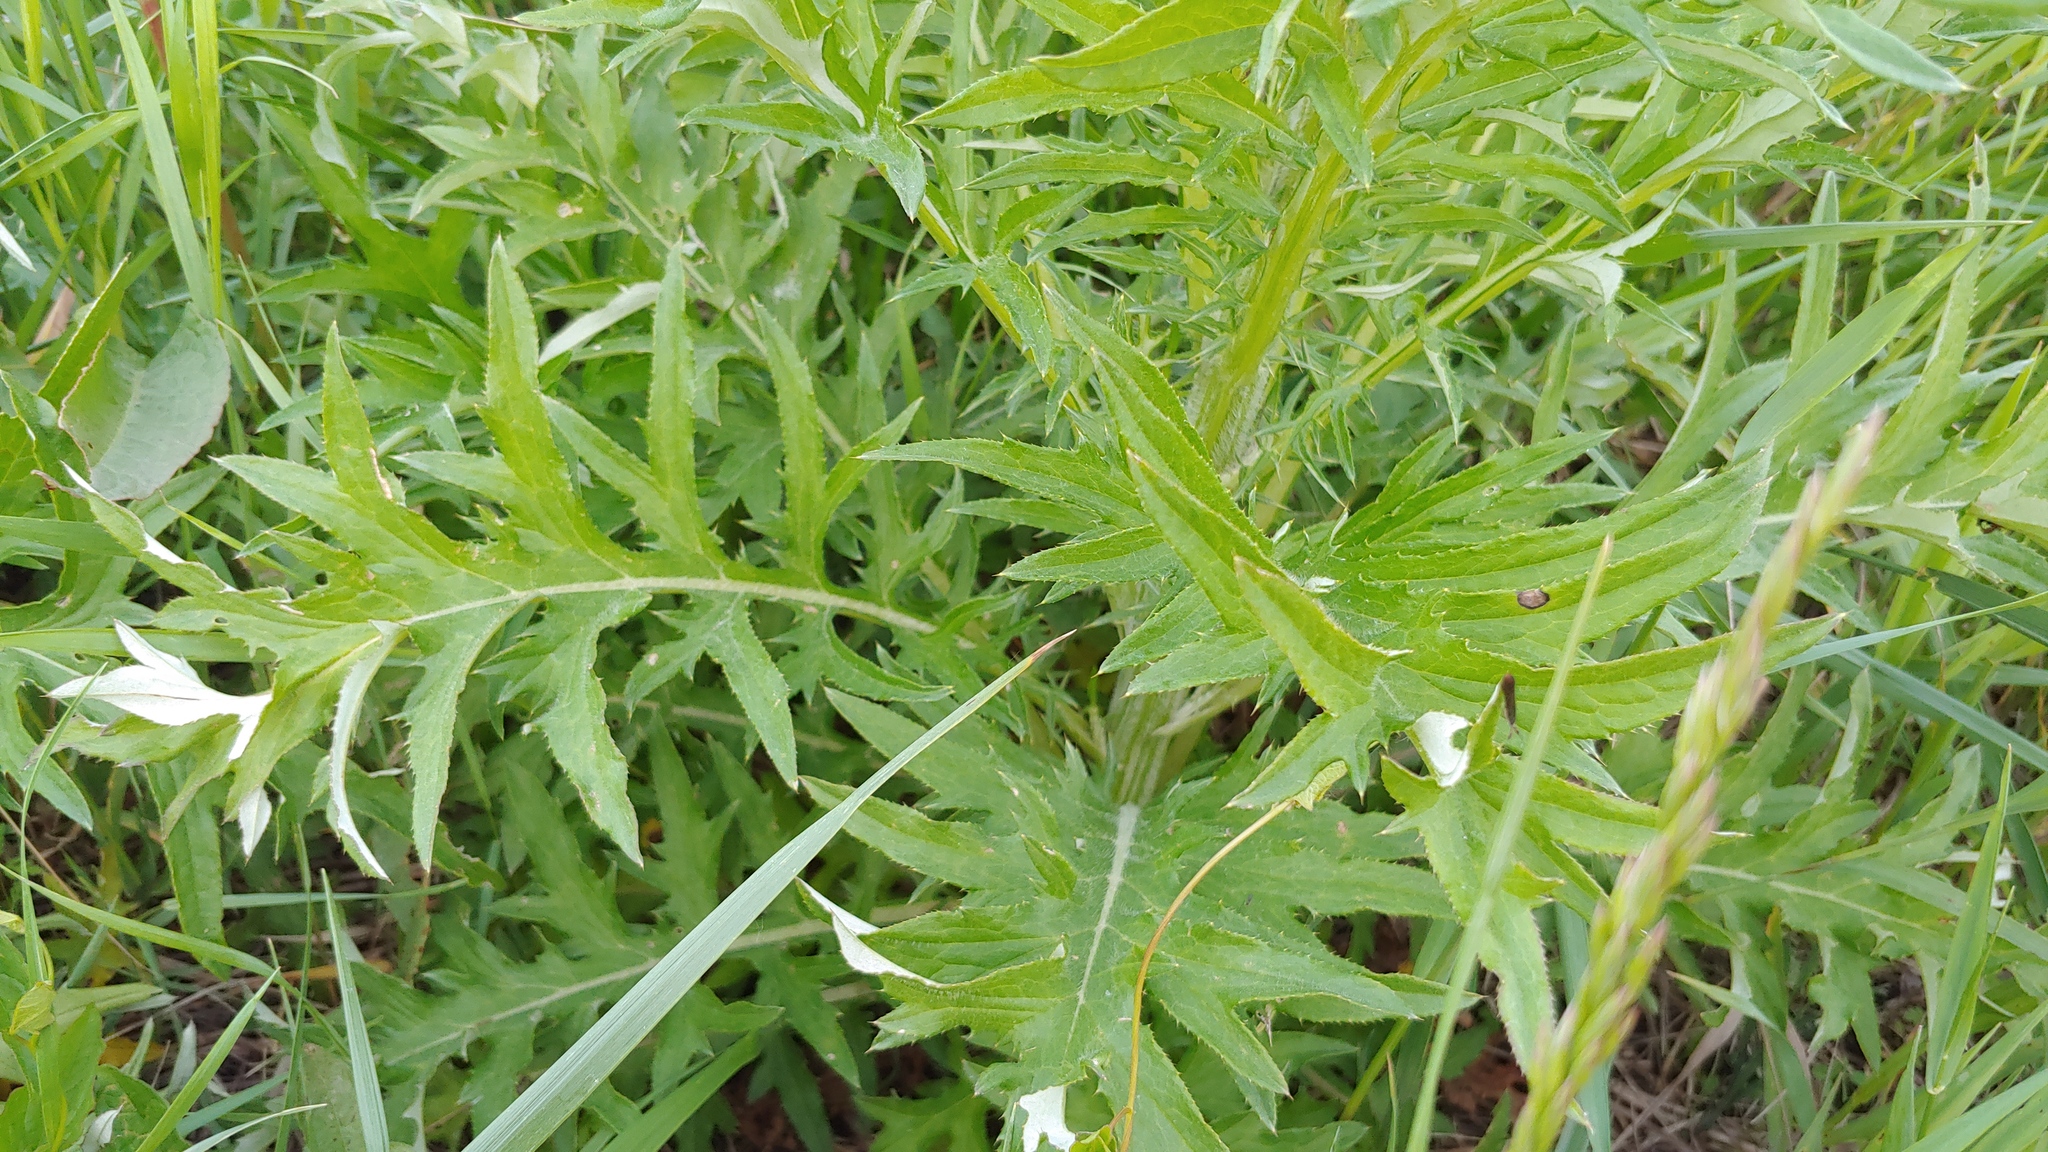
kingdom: Plantae
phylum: Tracheophyta
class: Magnoliopsida
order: Asterales
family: Asteraceae
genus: Cirsium
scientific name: Cirsium discolor
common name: Field thistle
